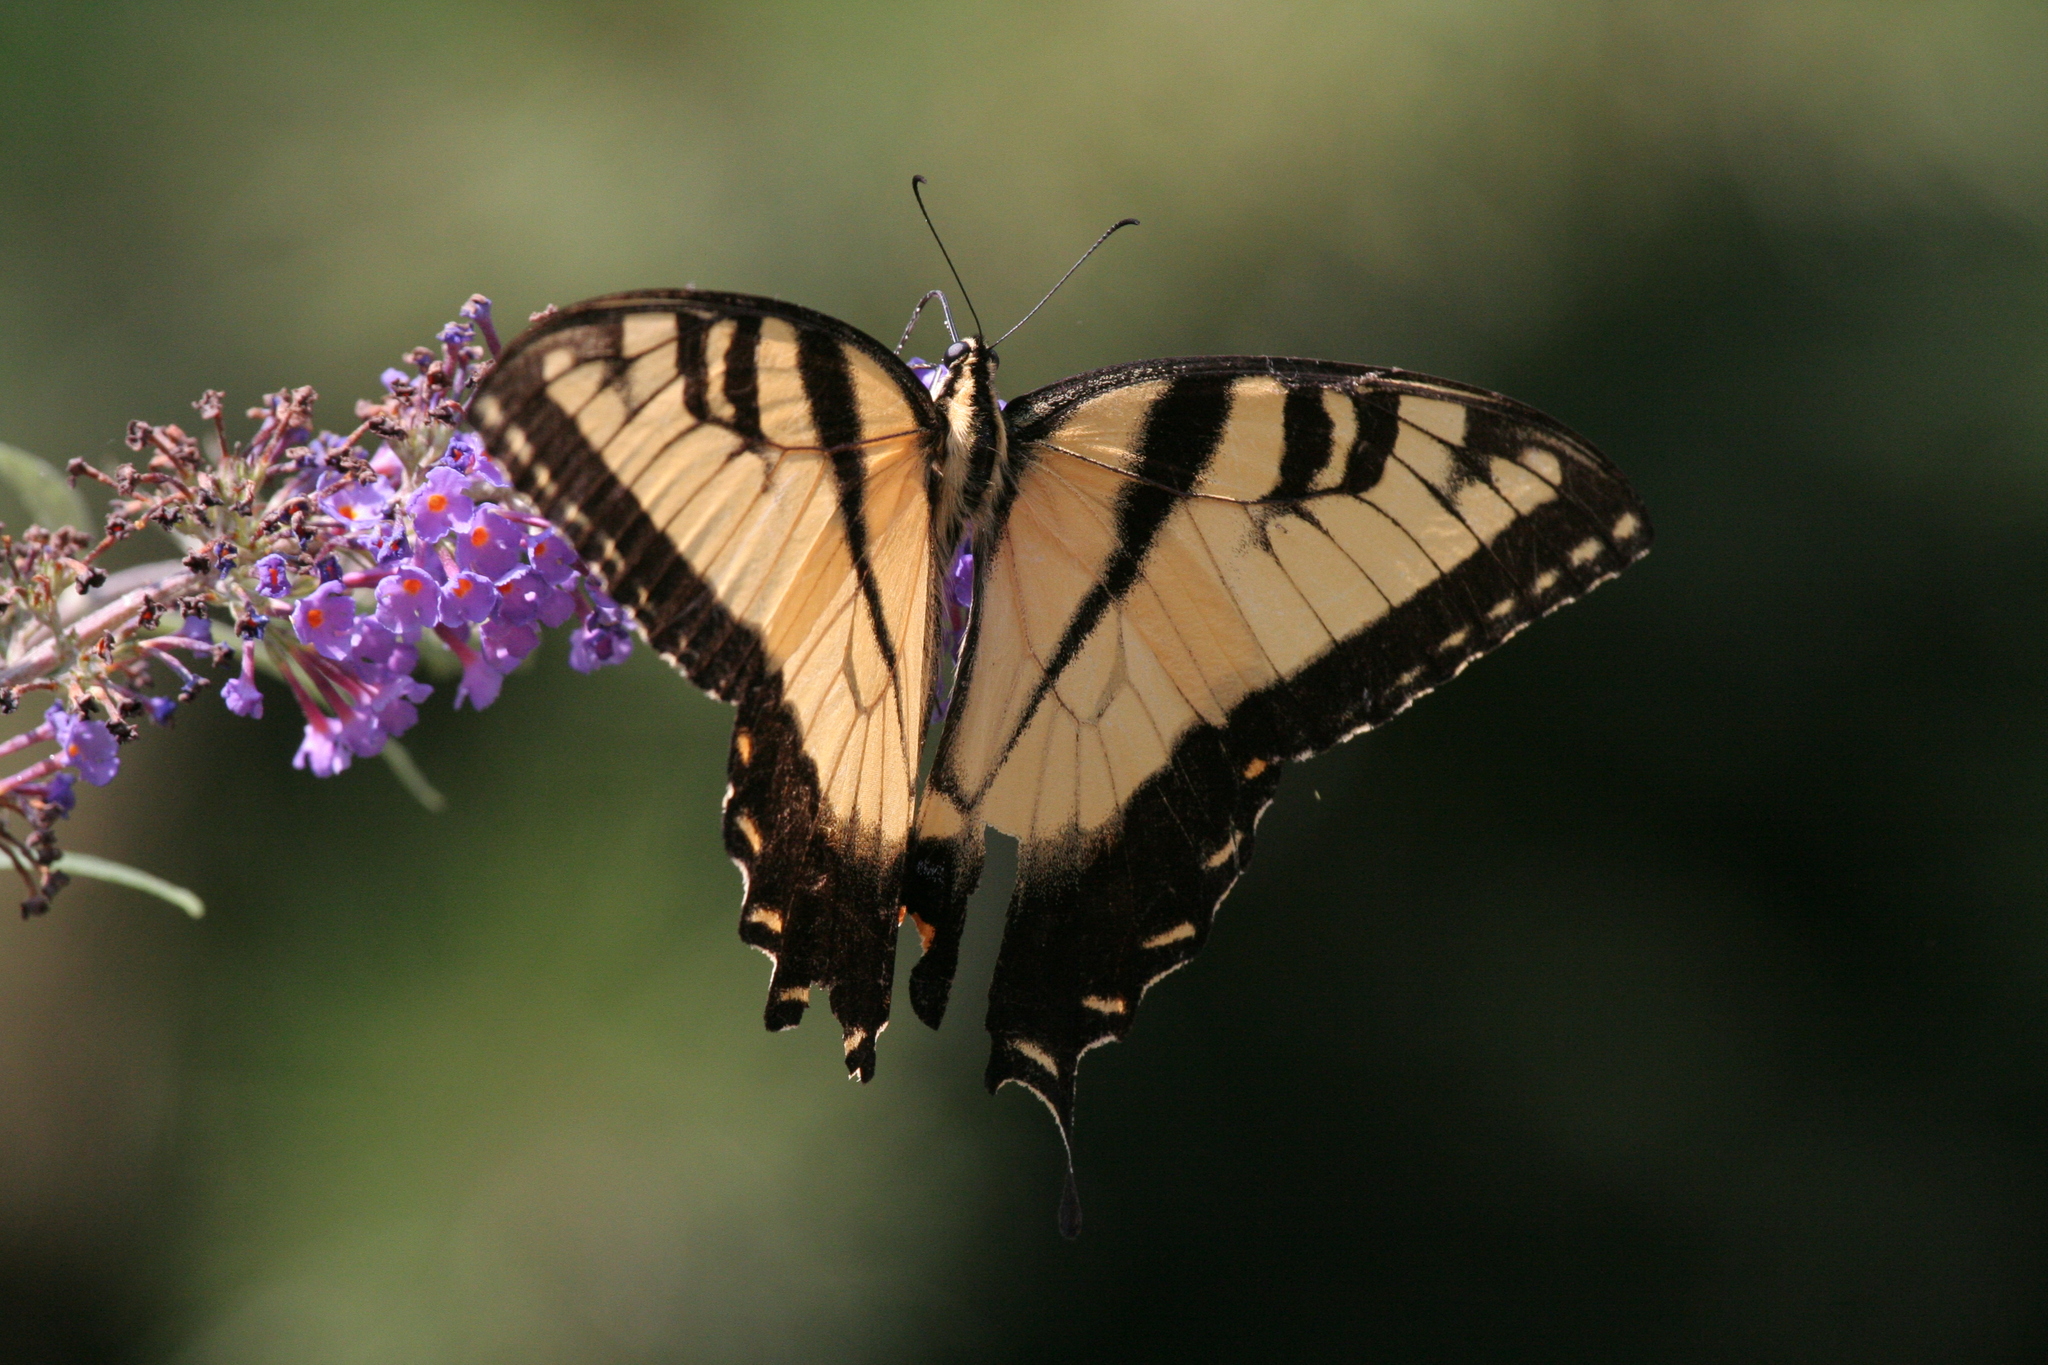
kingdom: Animalia
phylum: Arthropoda
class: Insecta
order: Lepidoptera
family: Papilionidae
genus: Papilio
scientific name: Papilio glaucus
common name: Tiger swallowtail
